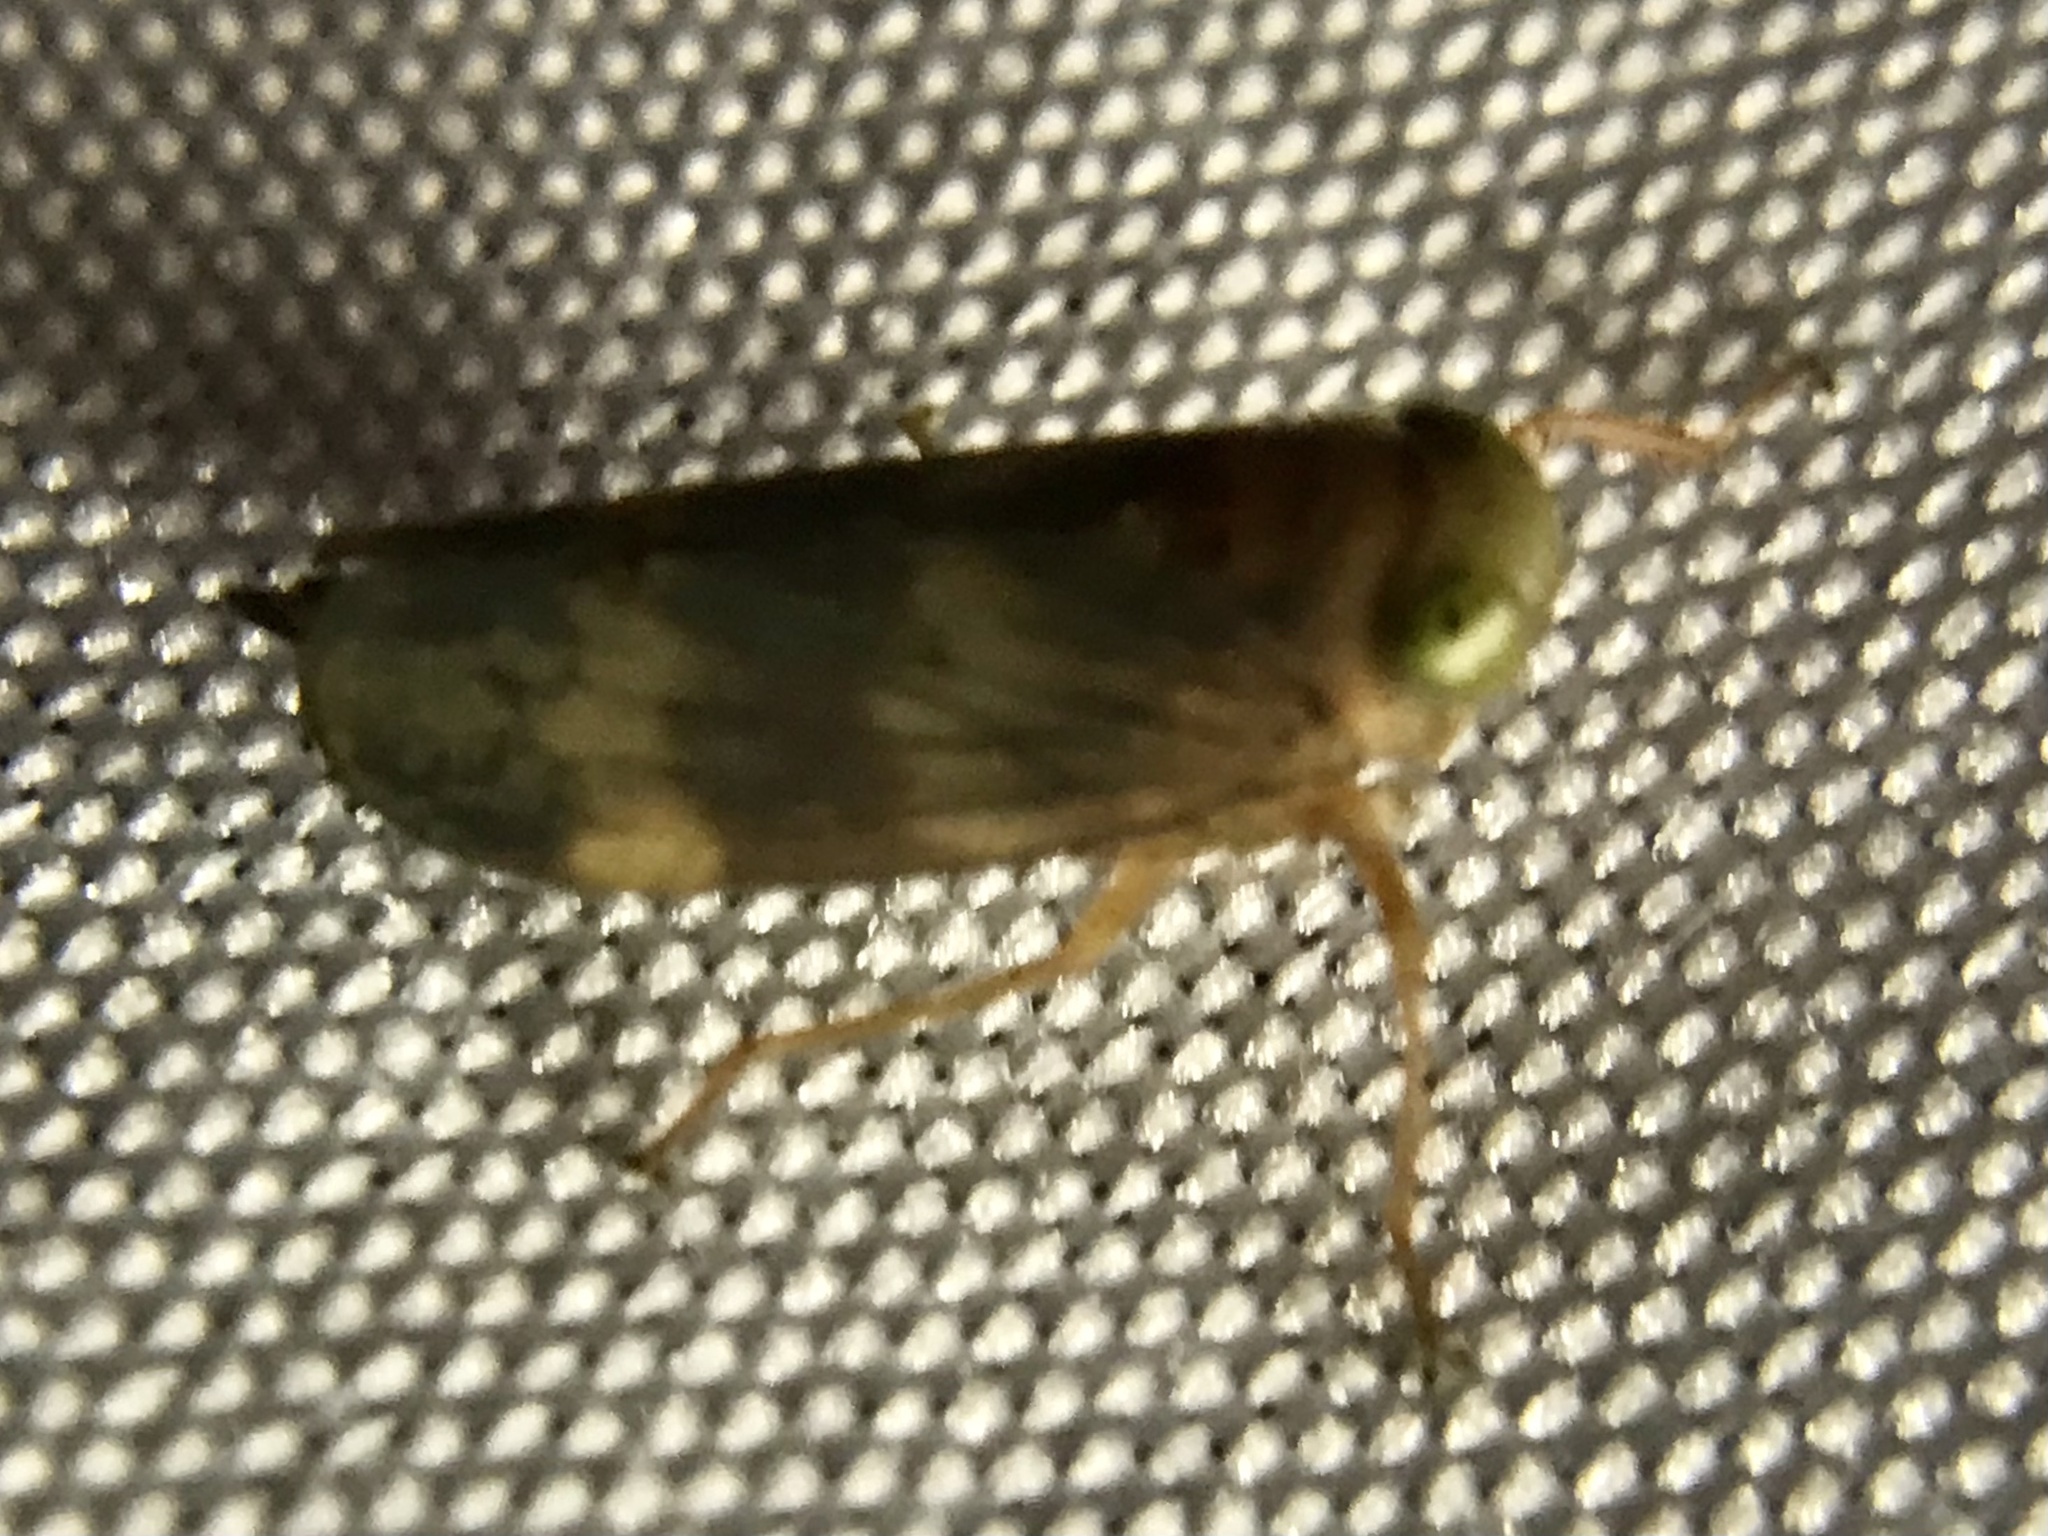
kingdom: Animalia
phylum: Arthropoda
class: Insecta
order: Hemiptera
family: Cicadellidae
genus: Jikradia
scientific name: Jikradia olitoria
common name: Coppery leafhopper
